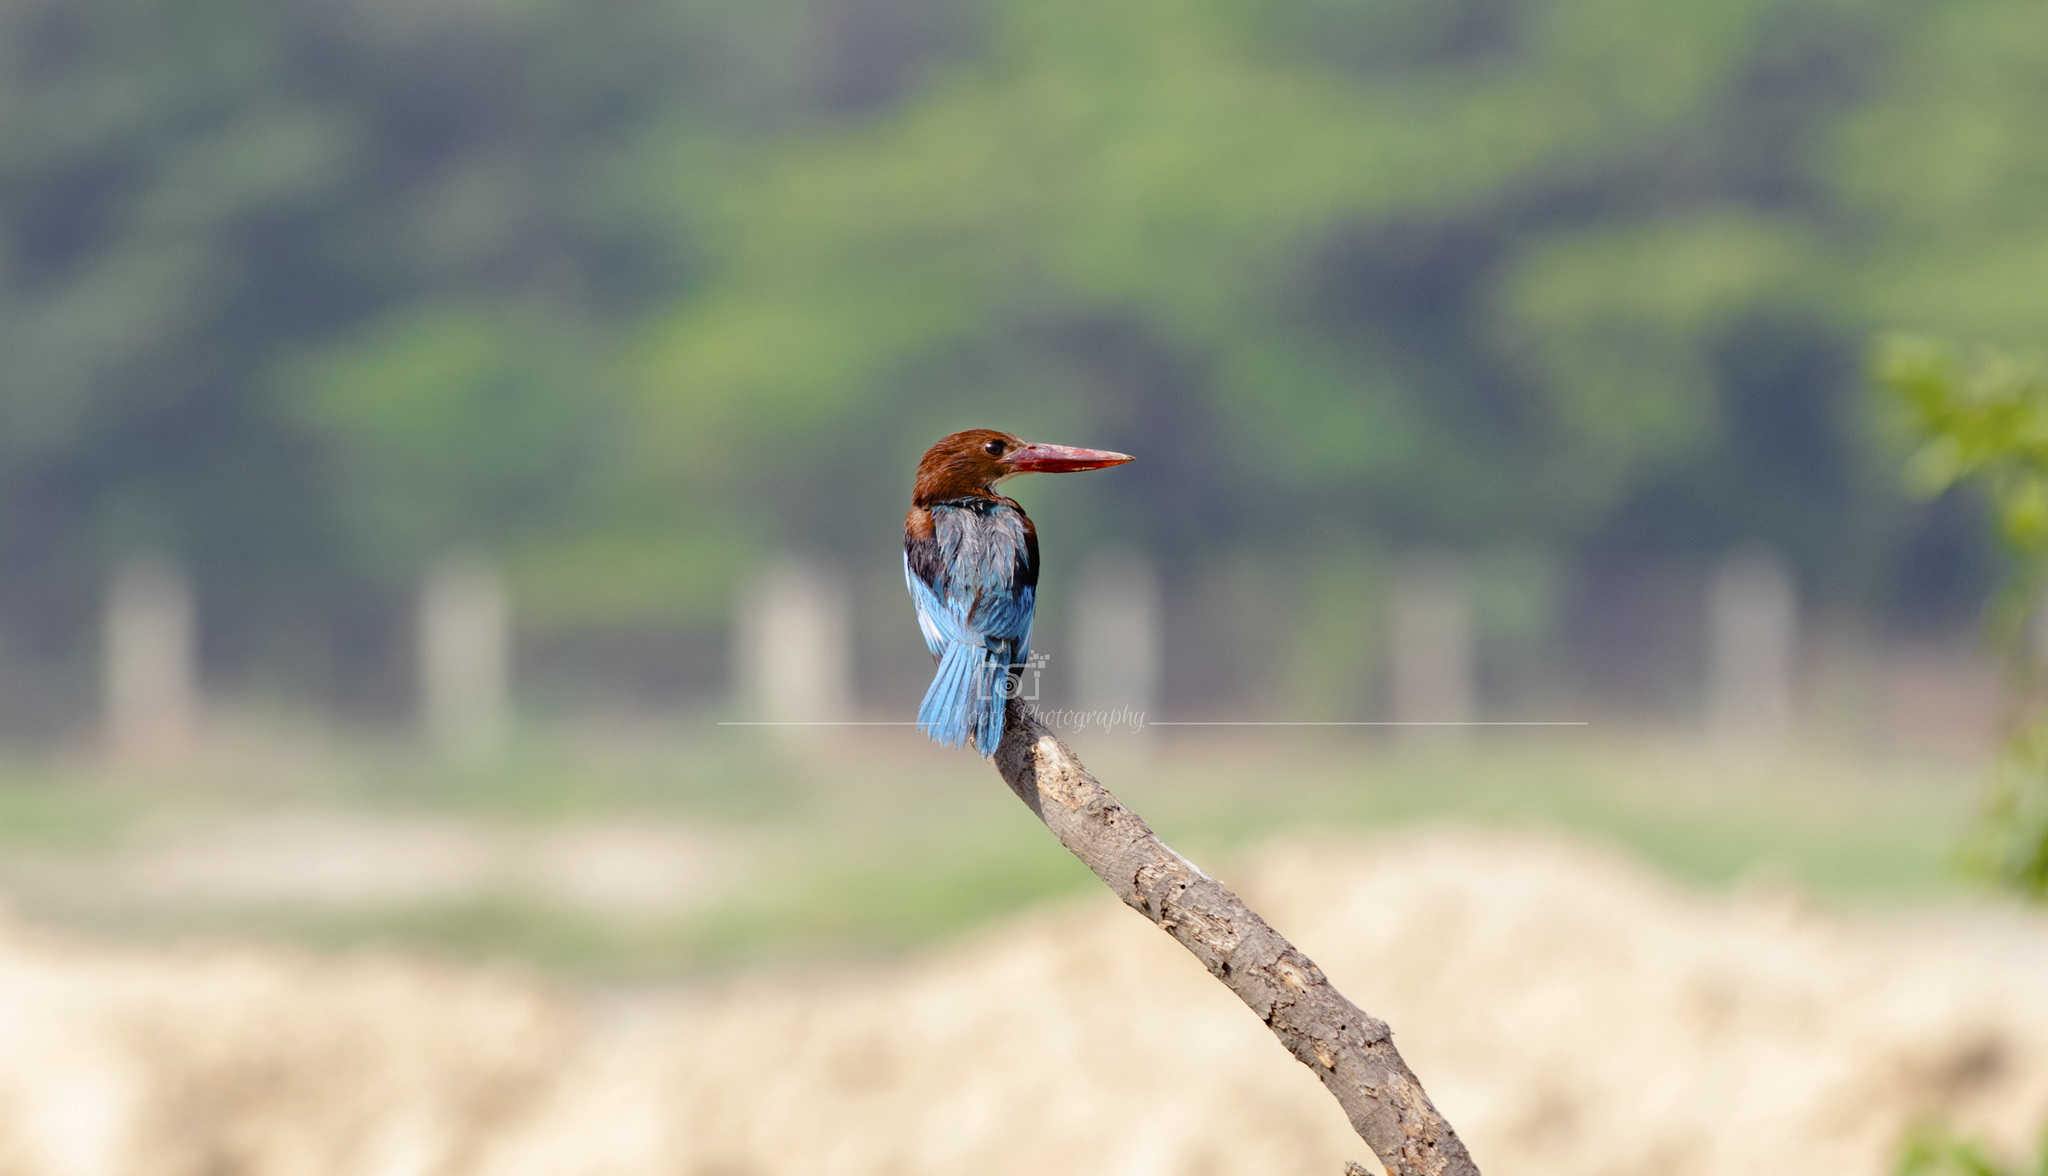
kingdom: Animalia
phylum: Chordata
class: Aves
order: Coraciiformes
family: Alcedinidae
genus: Halcyon
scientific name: Halcyon smyrnensis
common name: White-throated kingfisher
